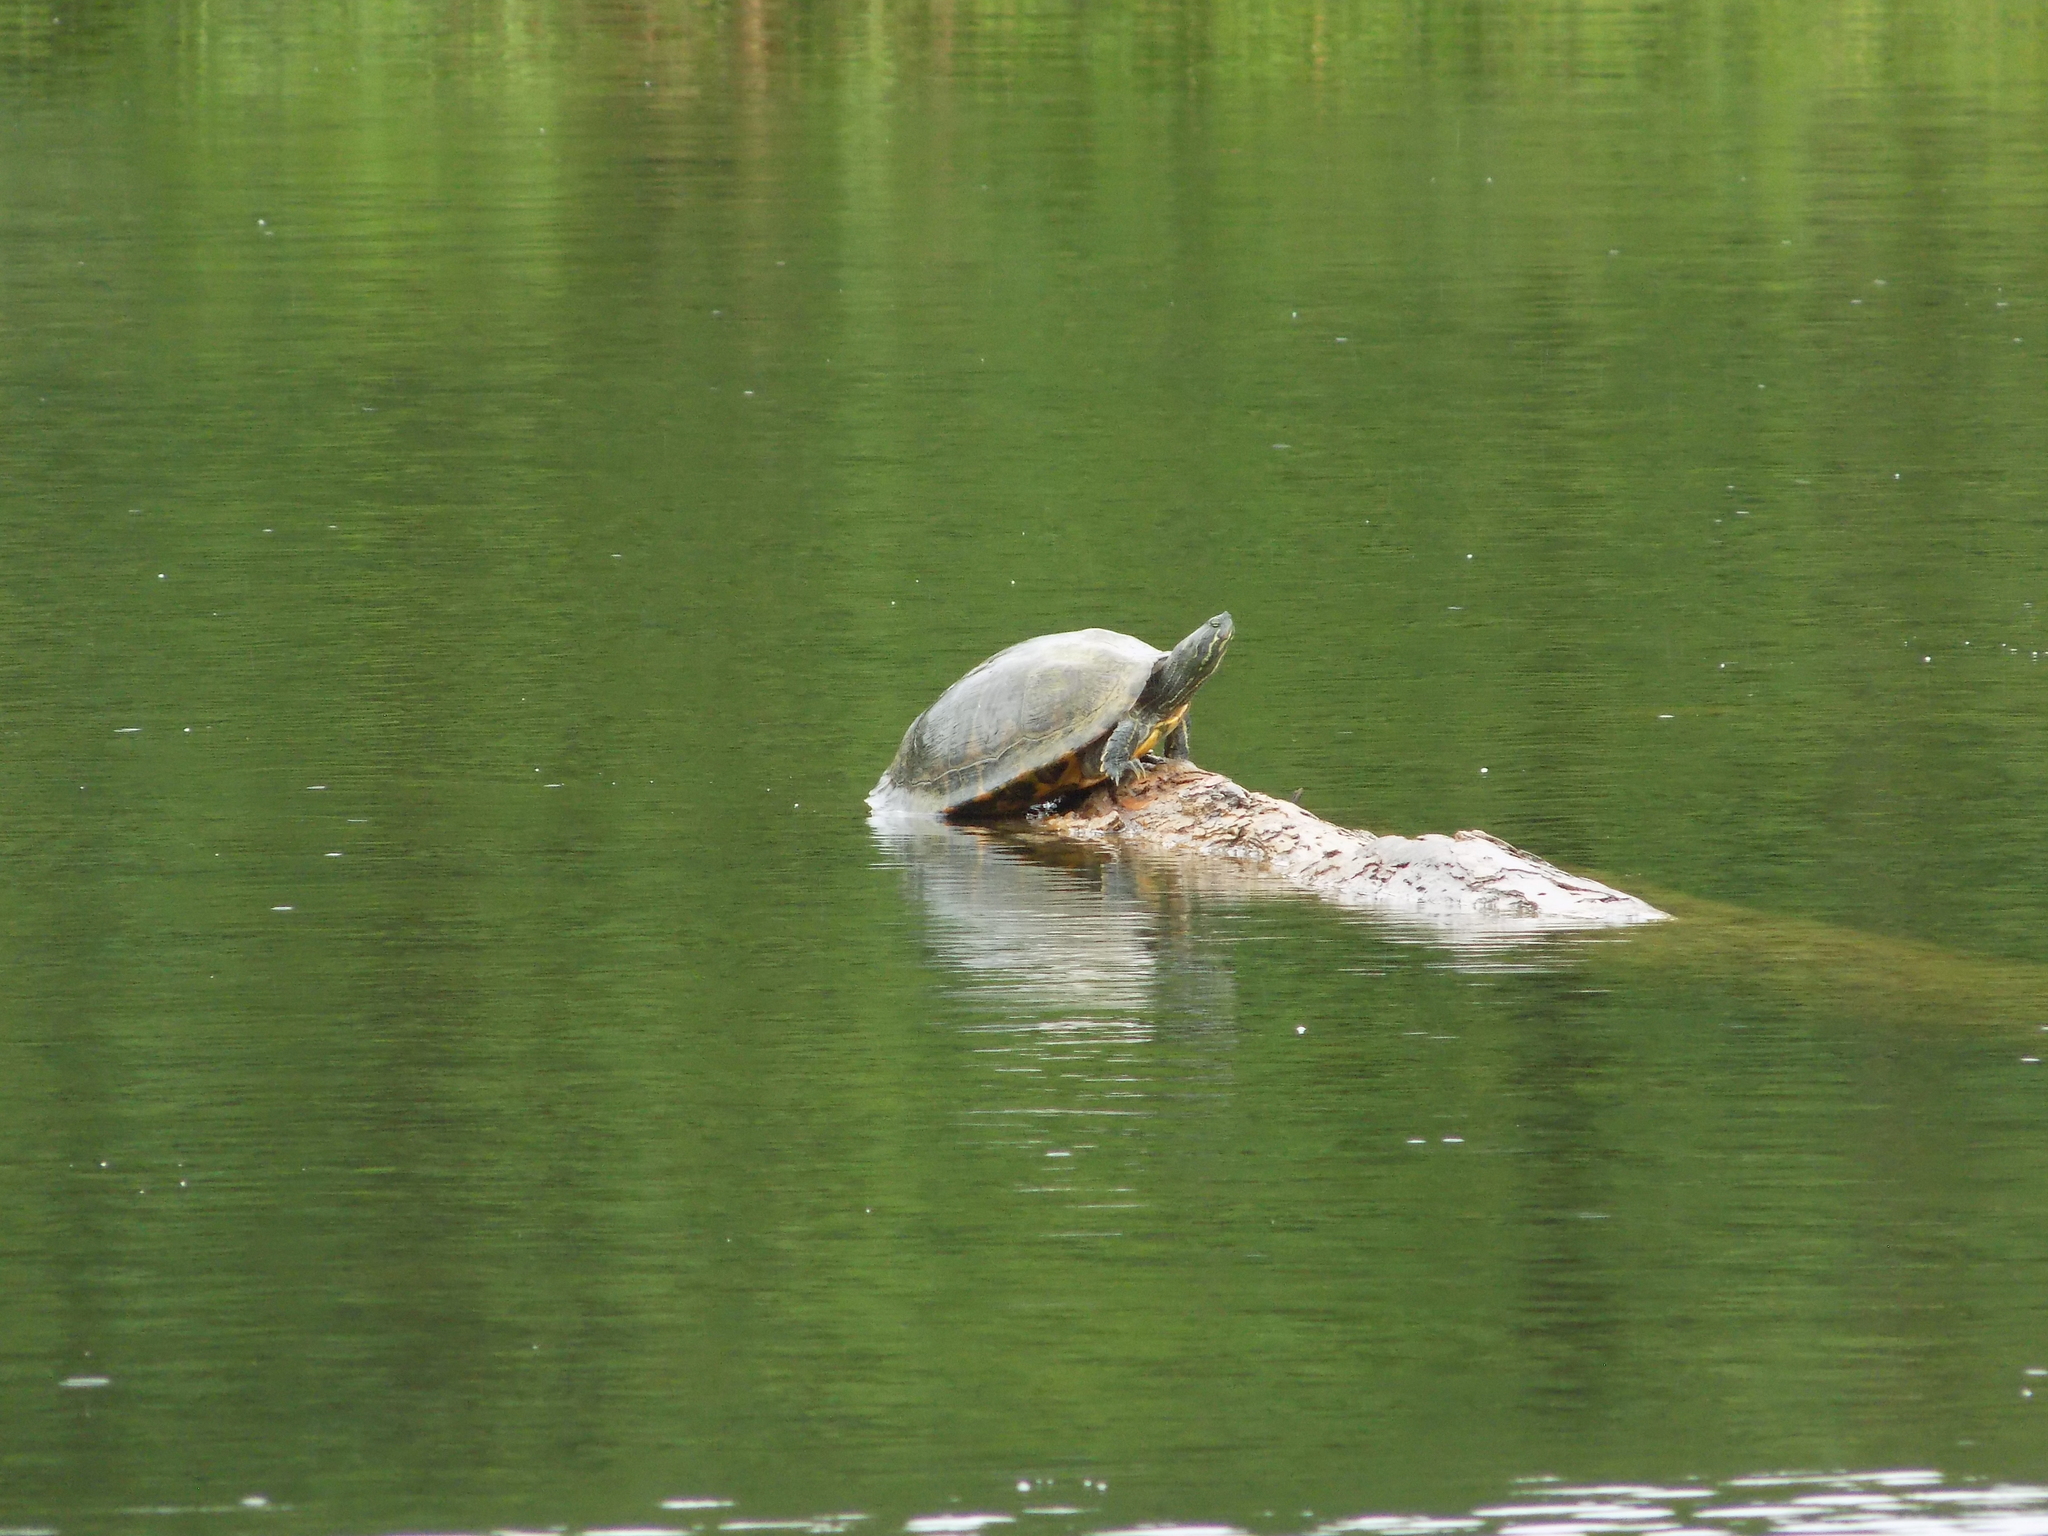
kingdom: Animalia
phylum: Chordata
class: Testudines
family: Emydidae
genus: Pseudemys
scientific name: Pseudemys concinna
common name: Eastern river cooter
